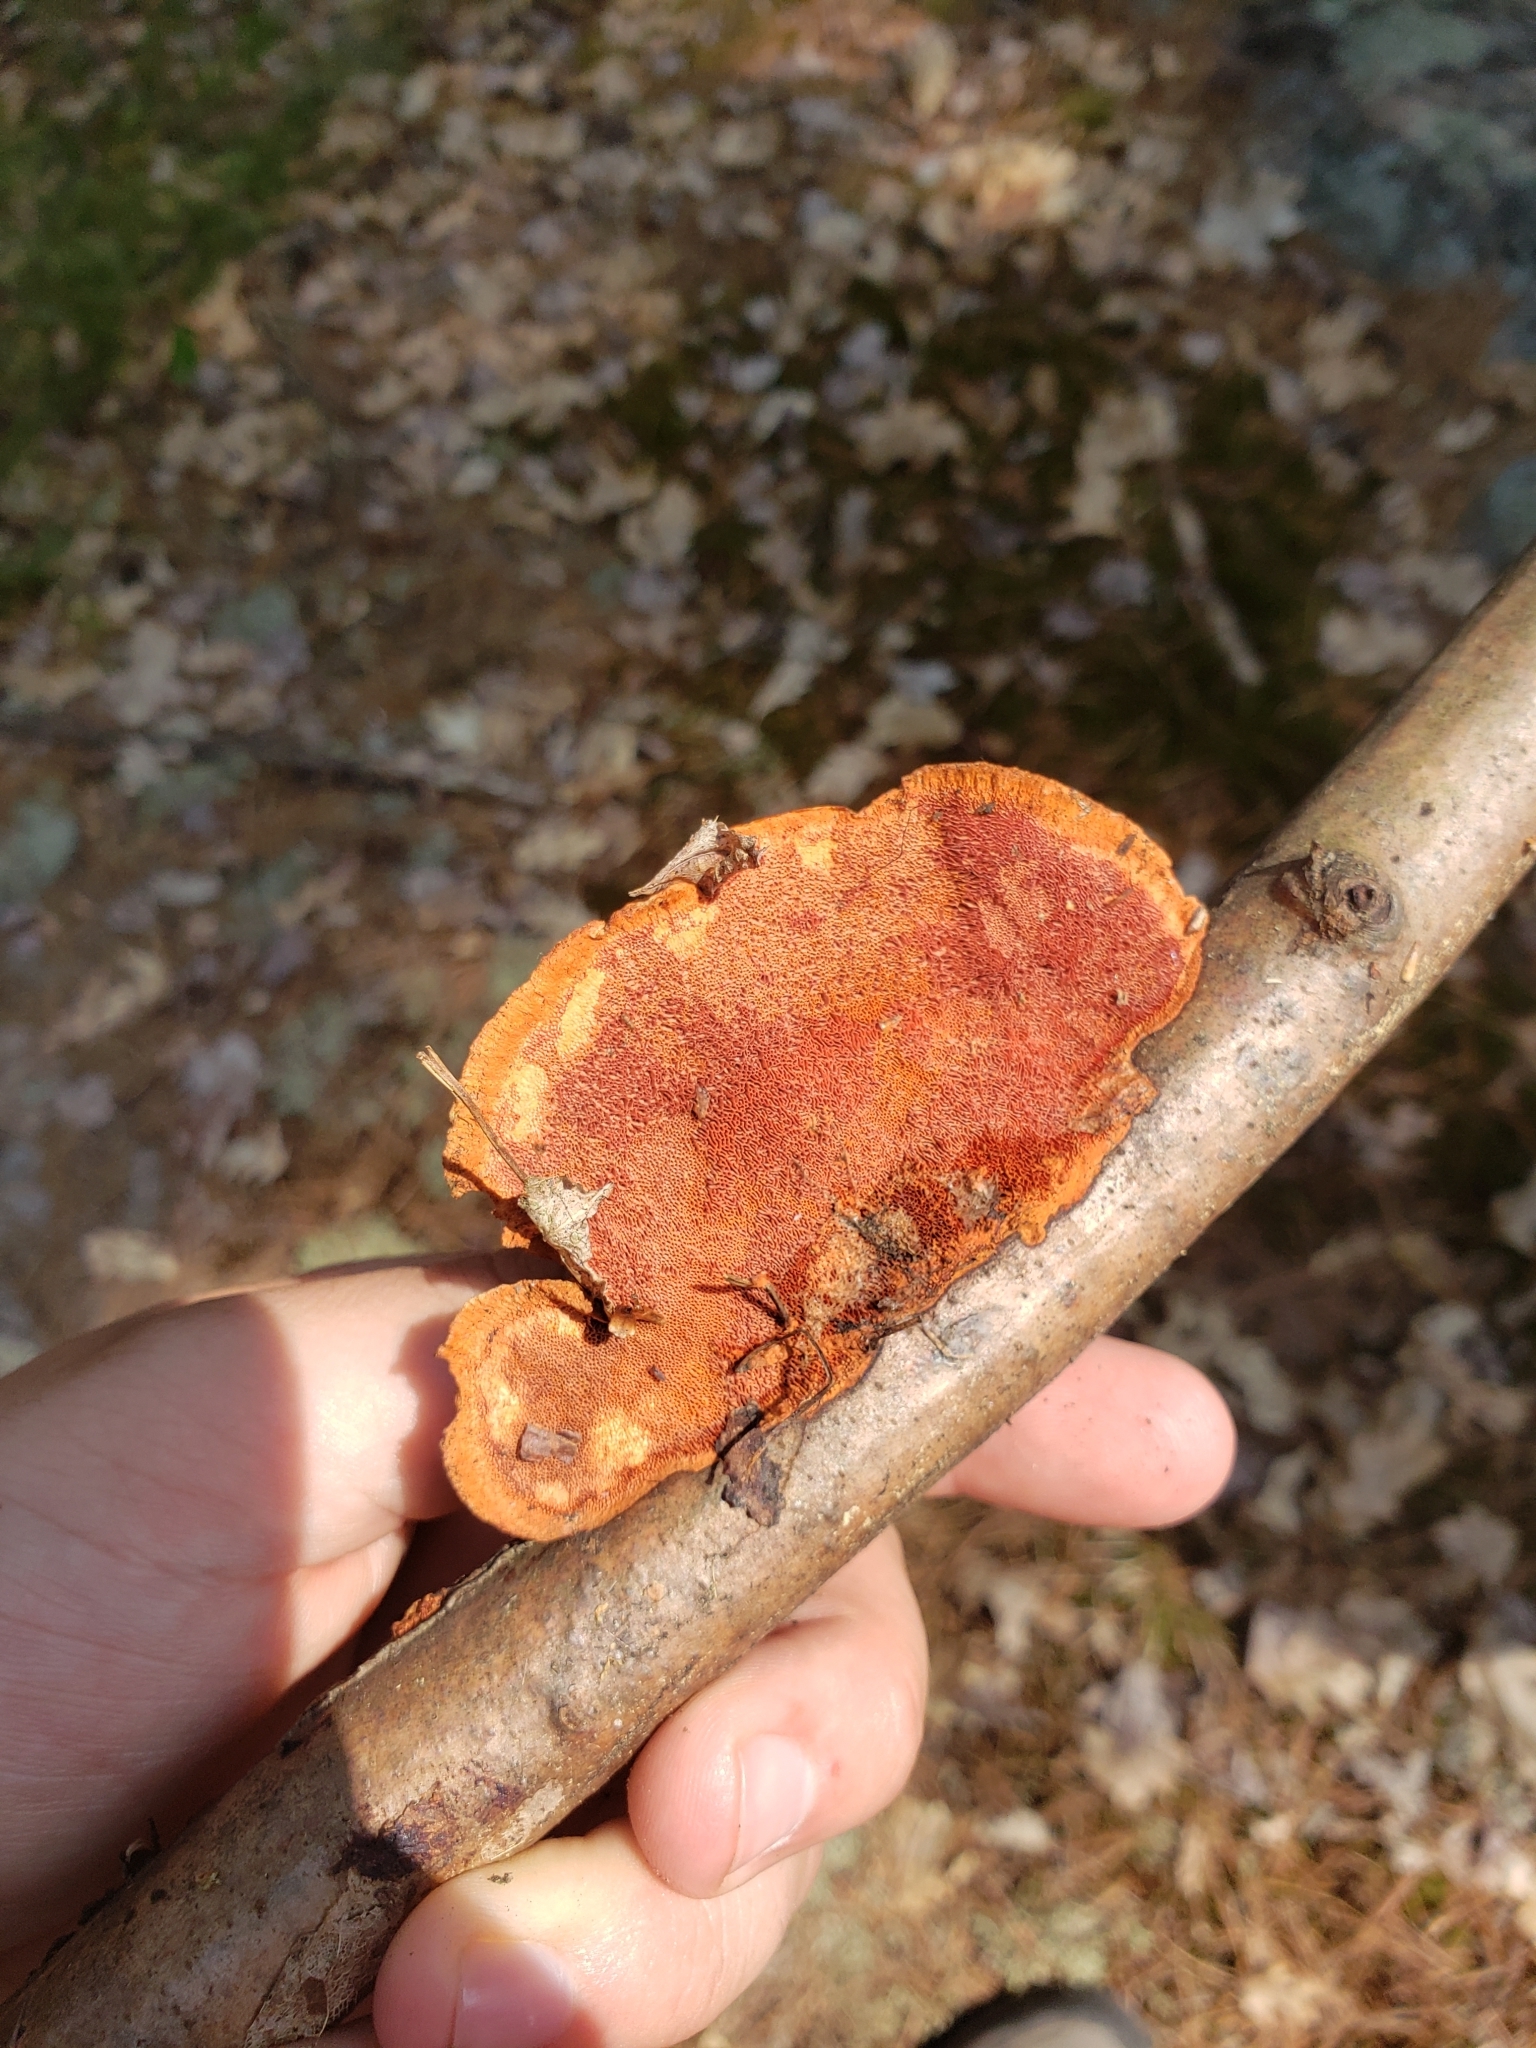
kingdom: Fungi
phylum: Basidiomycota
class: Agaricomycetes
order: Polyporales
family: Polyporaceae
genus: Trametes
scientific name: Trametes cinnabarina
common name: Northern cinnabar polypore
